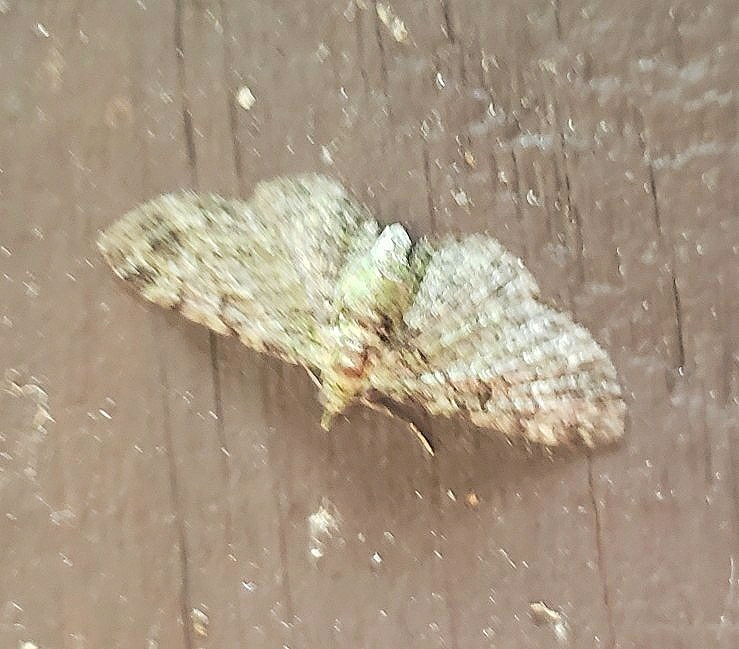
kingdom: Animalia
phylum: Arthropoda
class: Insecta
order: Lepidoptera
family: Geometridae
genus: Pasiphila
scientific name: Pasiphila rectangulata
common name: Green pug
